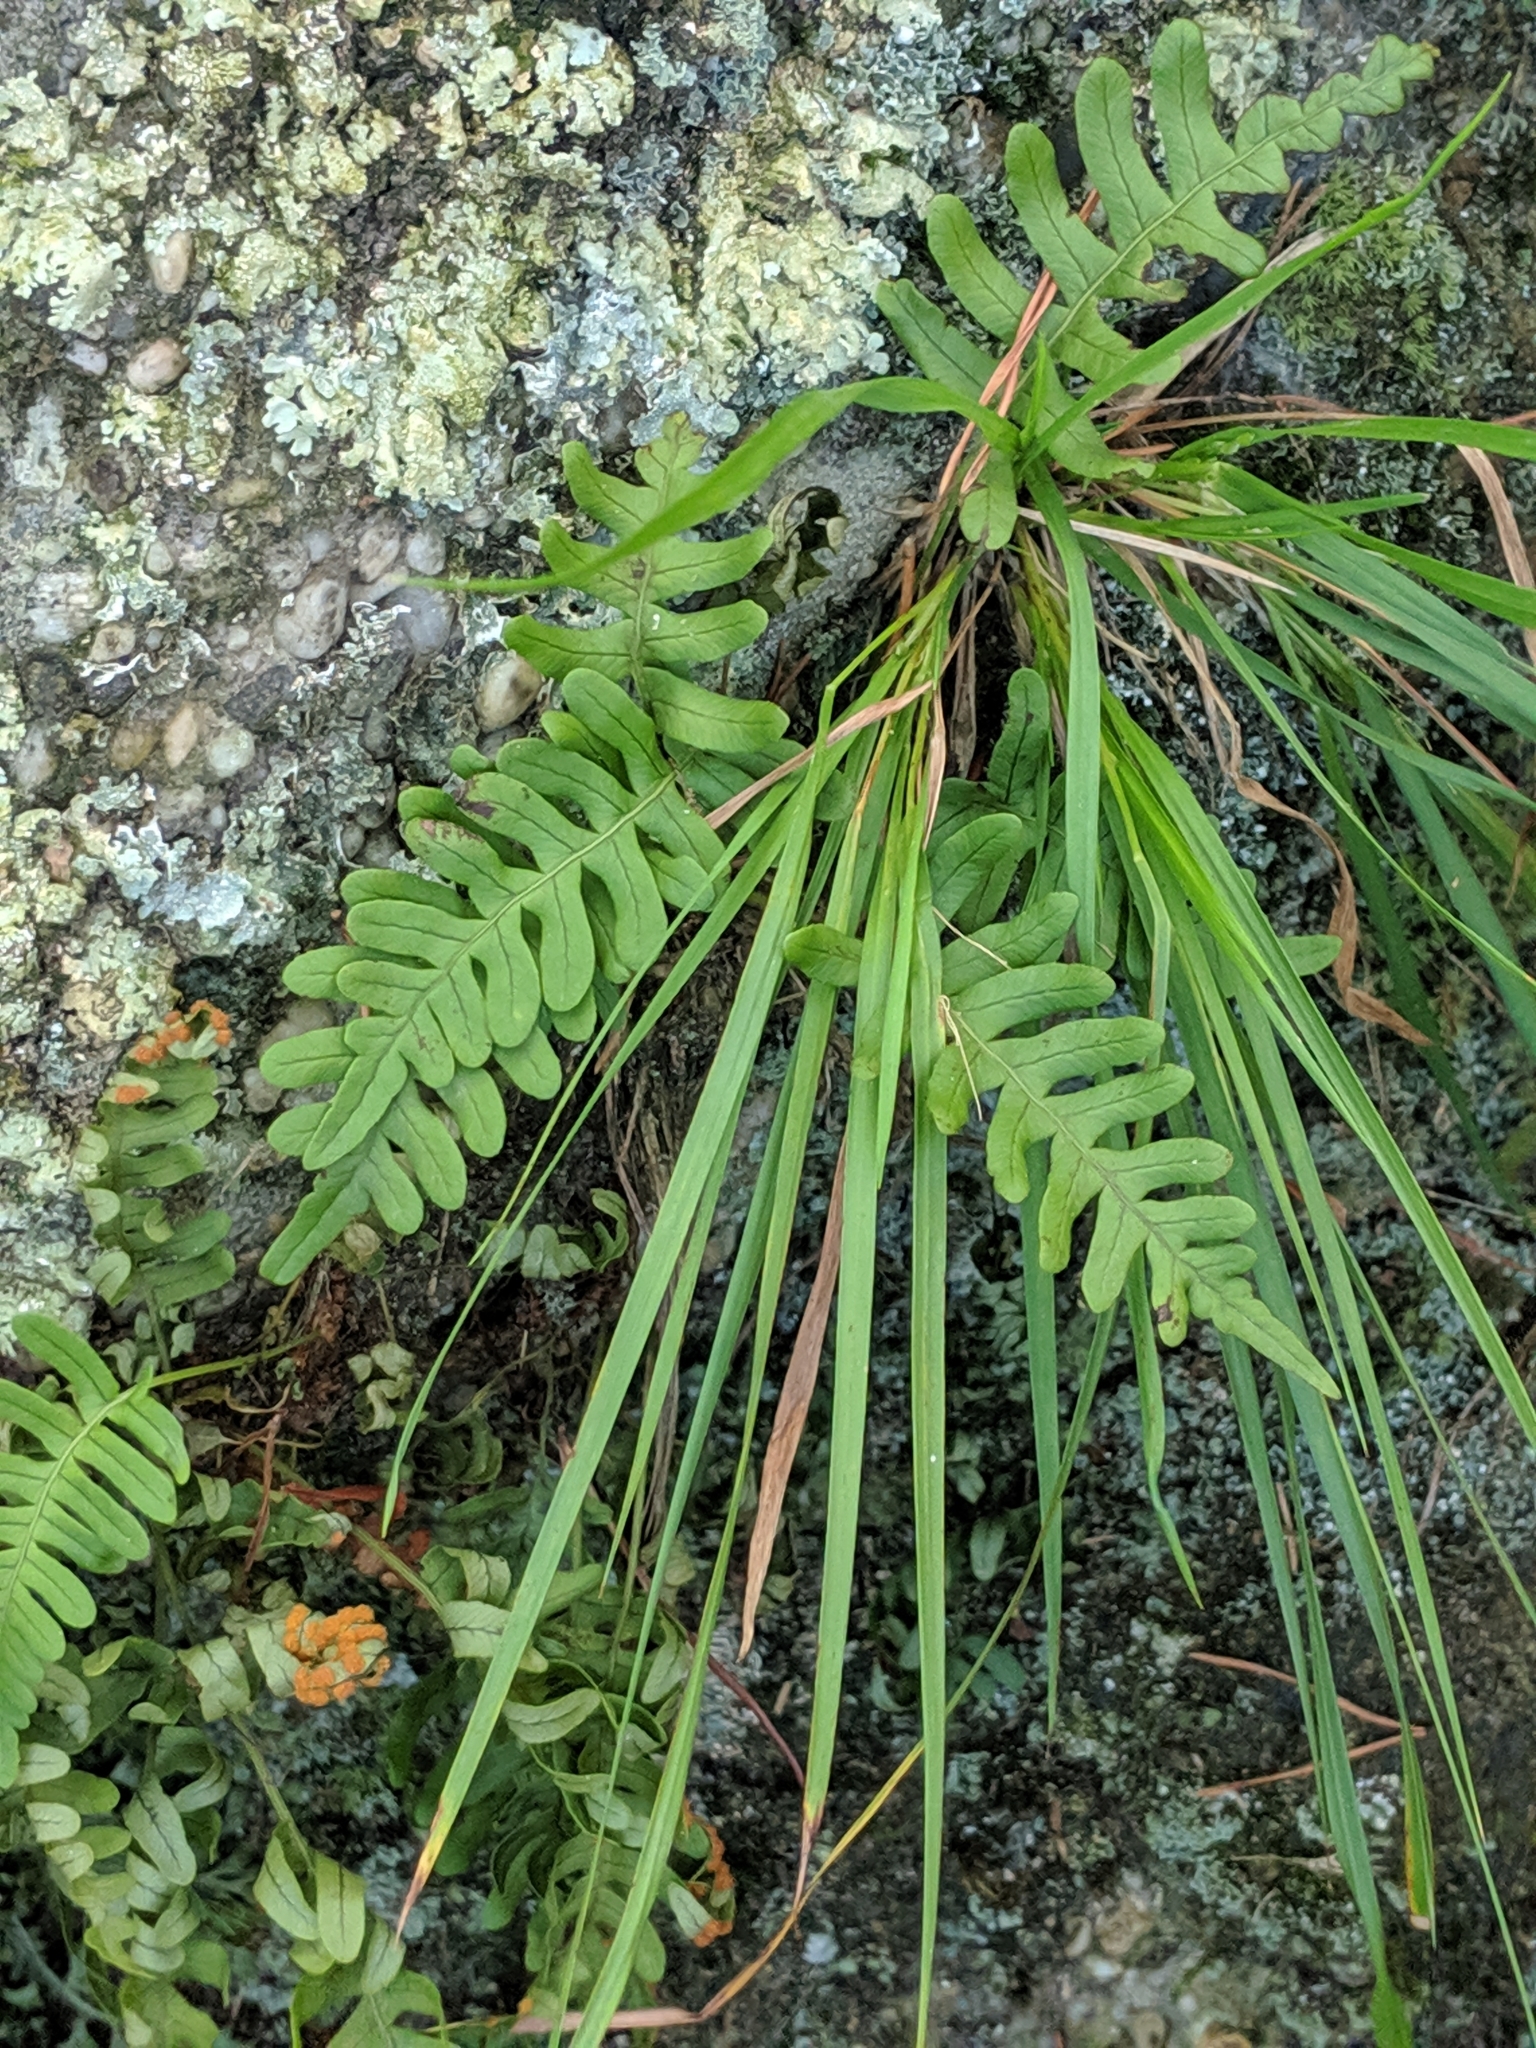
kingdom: Plantae
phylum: Tracheophyta
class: Polypodiopsida
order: Polypodiales
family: Polypodiaceae
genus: Polypodium
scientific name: Polypodium virginianum
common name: American wall fern
